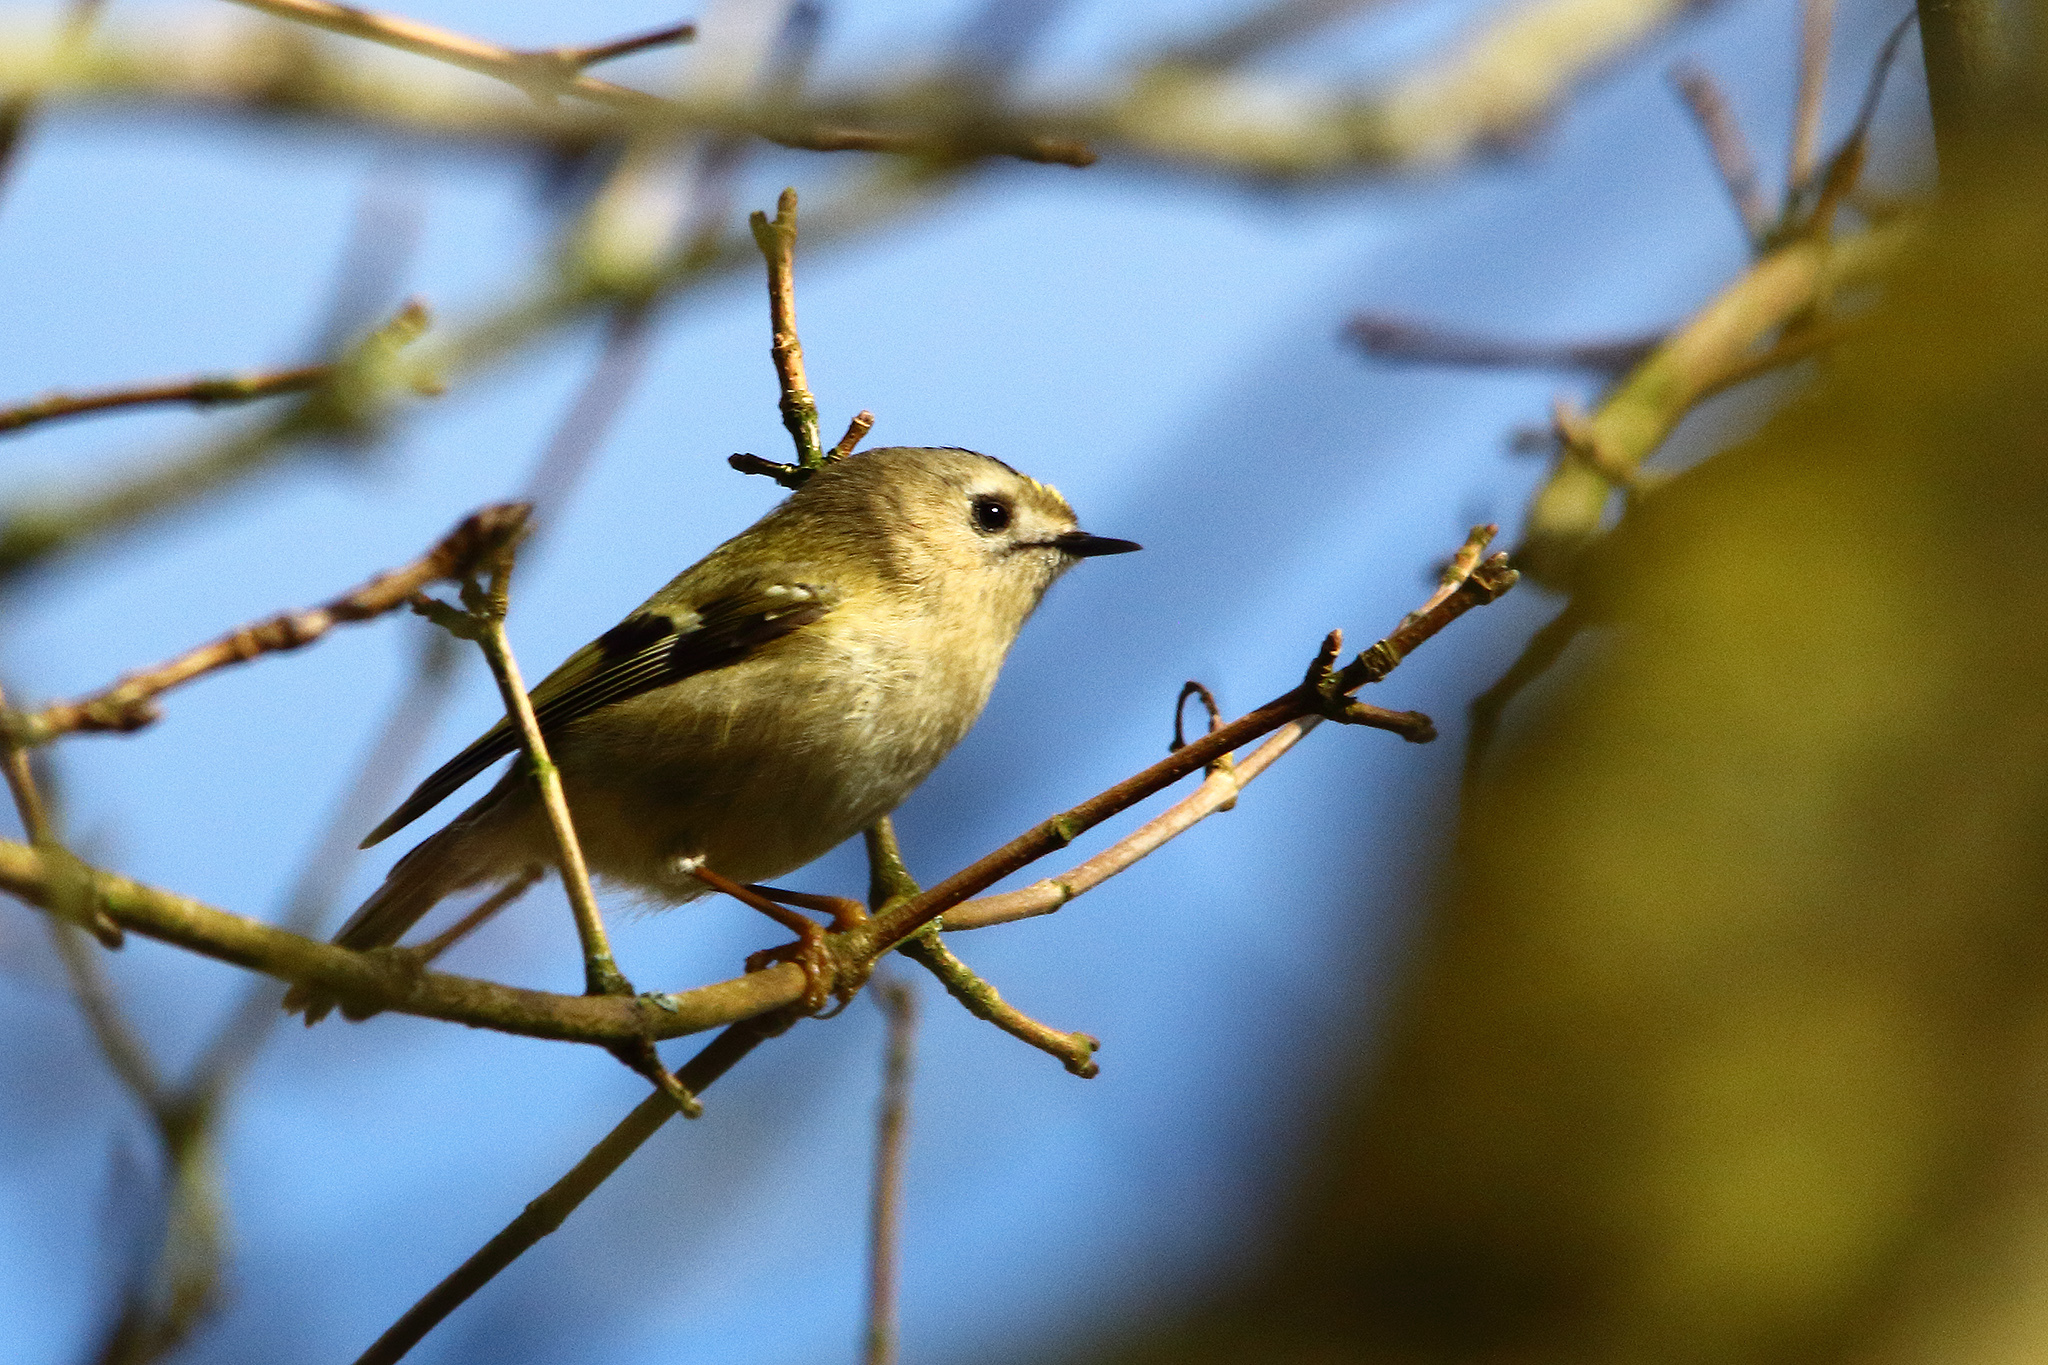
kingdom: Animalia
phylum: Chordata
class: Aves
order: Passeriformes
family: Regulidae
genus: Regulus
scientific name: Regulus regulus
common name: Goldcrest
